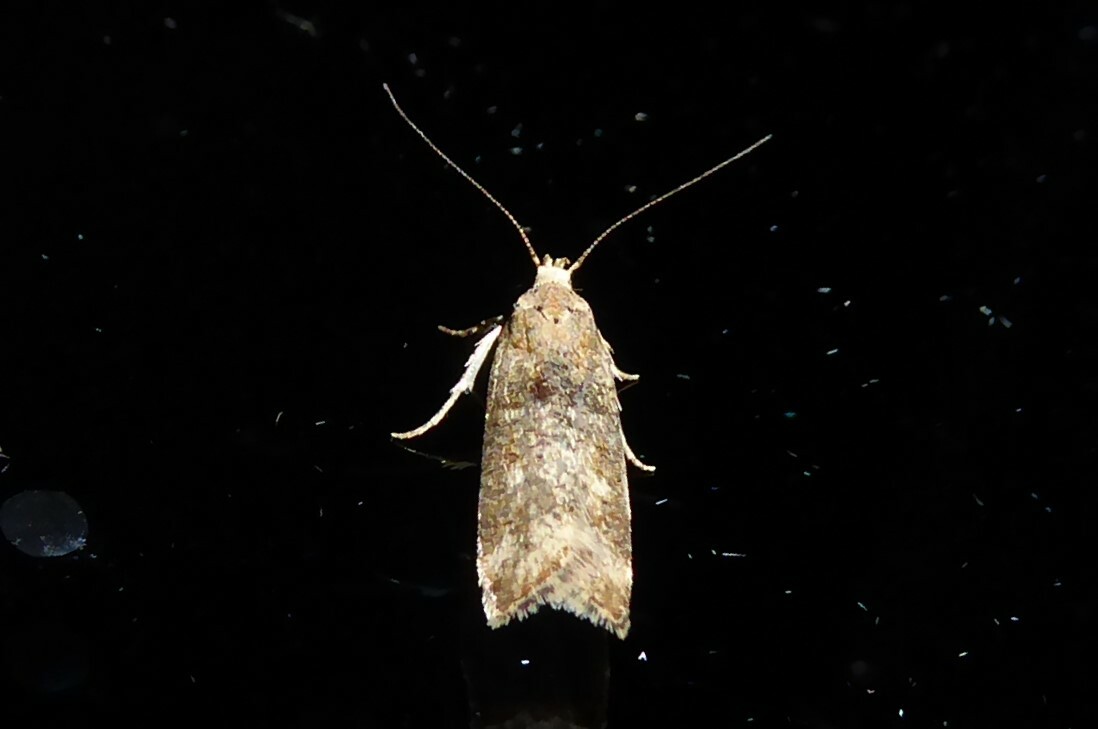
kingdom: Animalia
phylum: Arthropoda
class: Insecta
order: Lepidoptera
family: Gelechiidae
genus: Anisoplaca
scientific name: Anisoplaca acrodactyla
